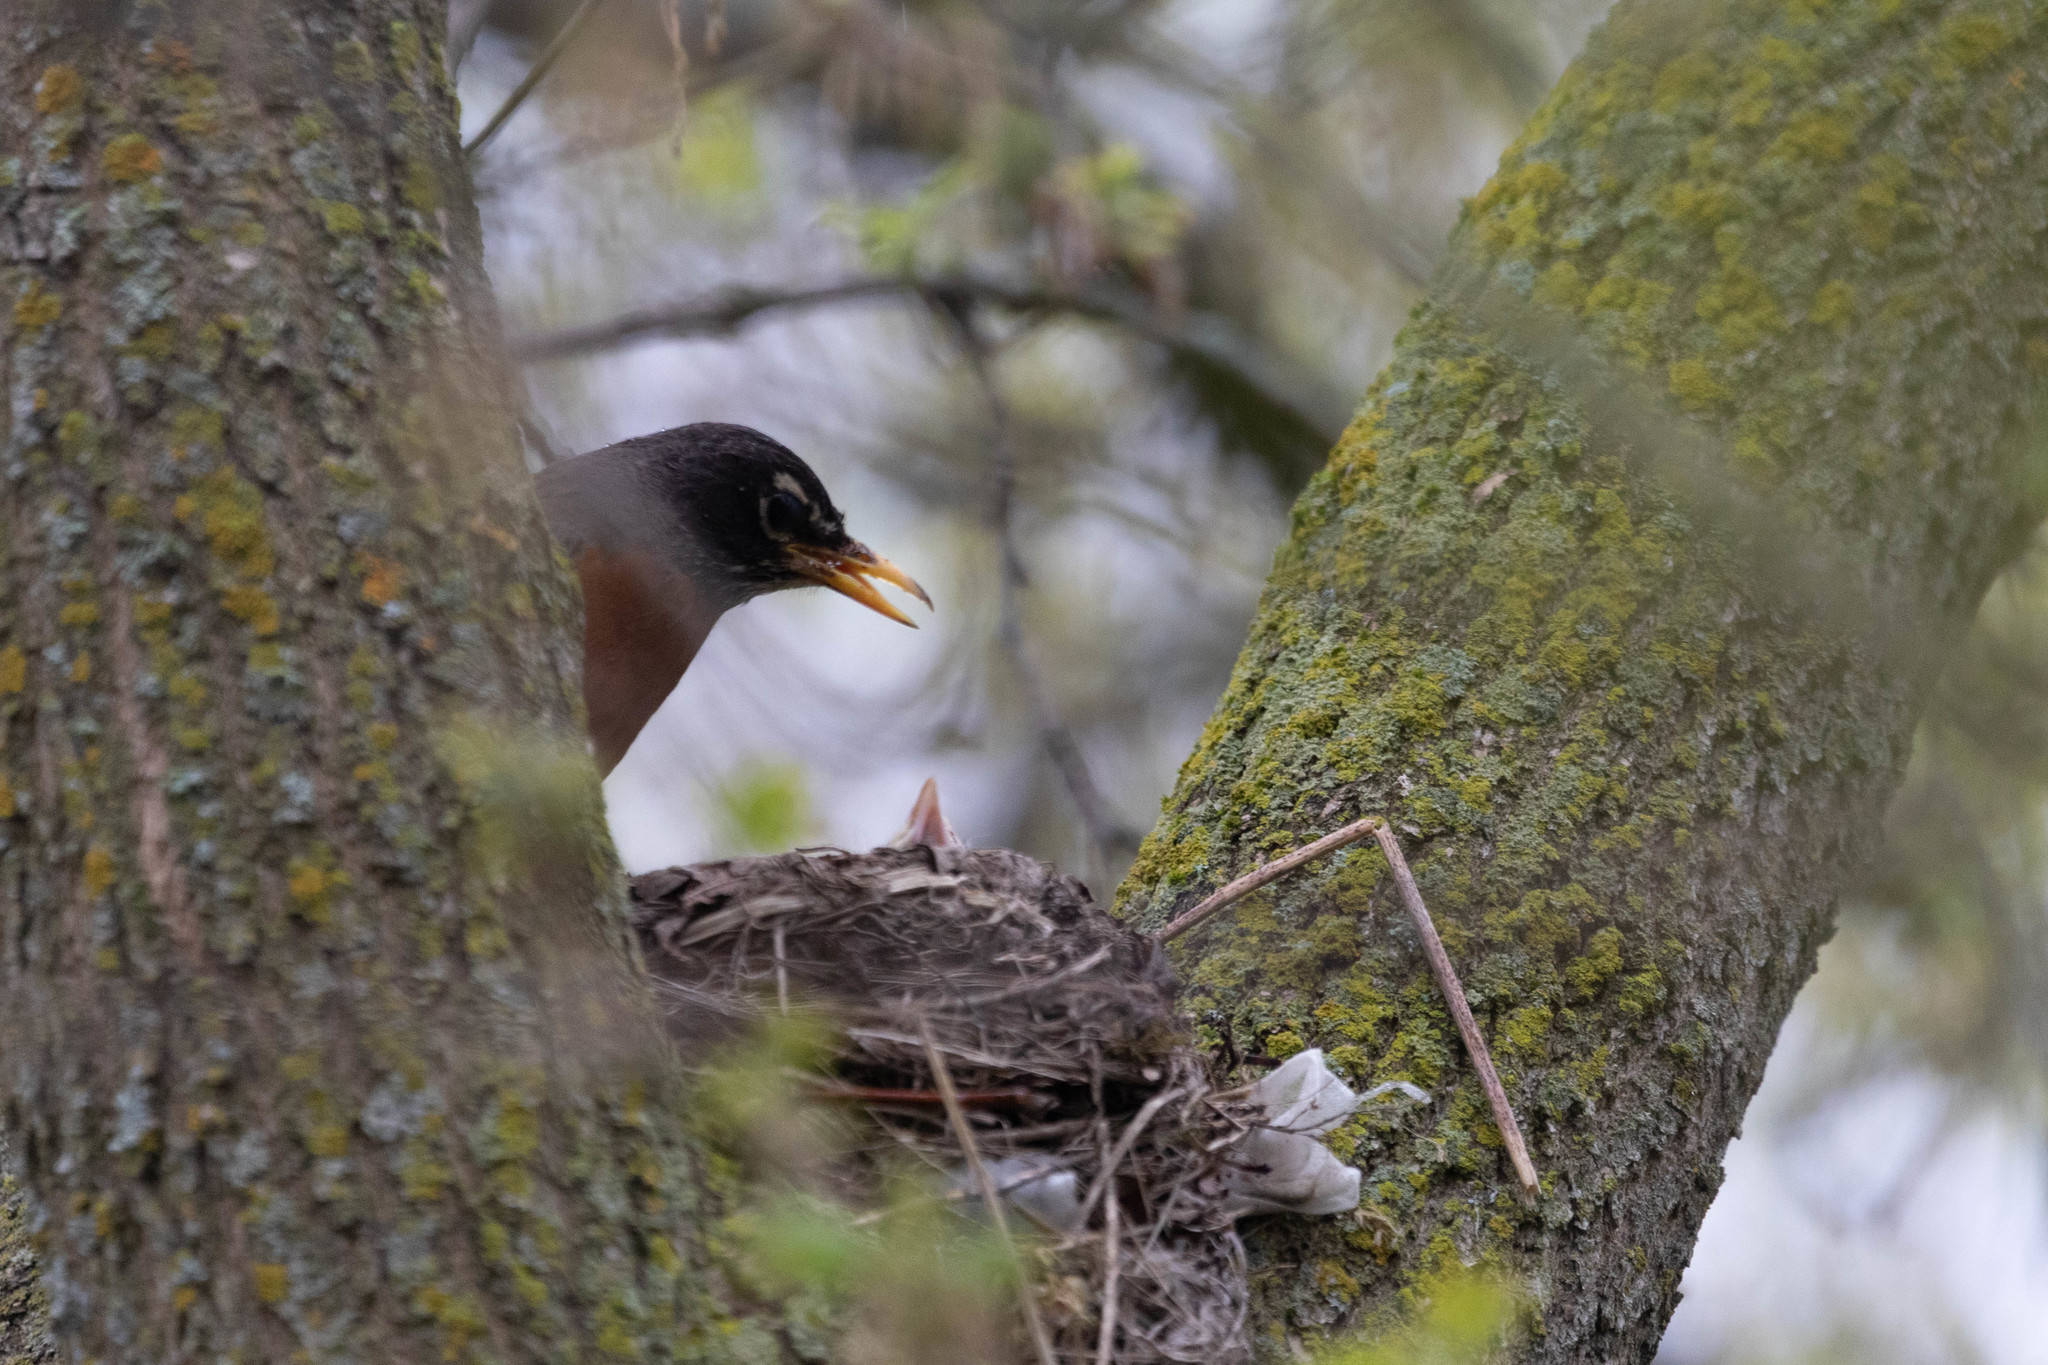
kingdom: Animalia
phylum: Chordata
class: Aves
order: Passeriformes
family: Turdidae
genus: Turdus
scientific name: Turdus migratorius
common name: American robin
